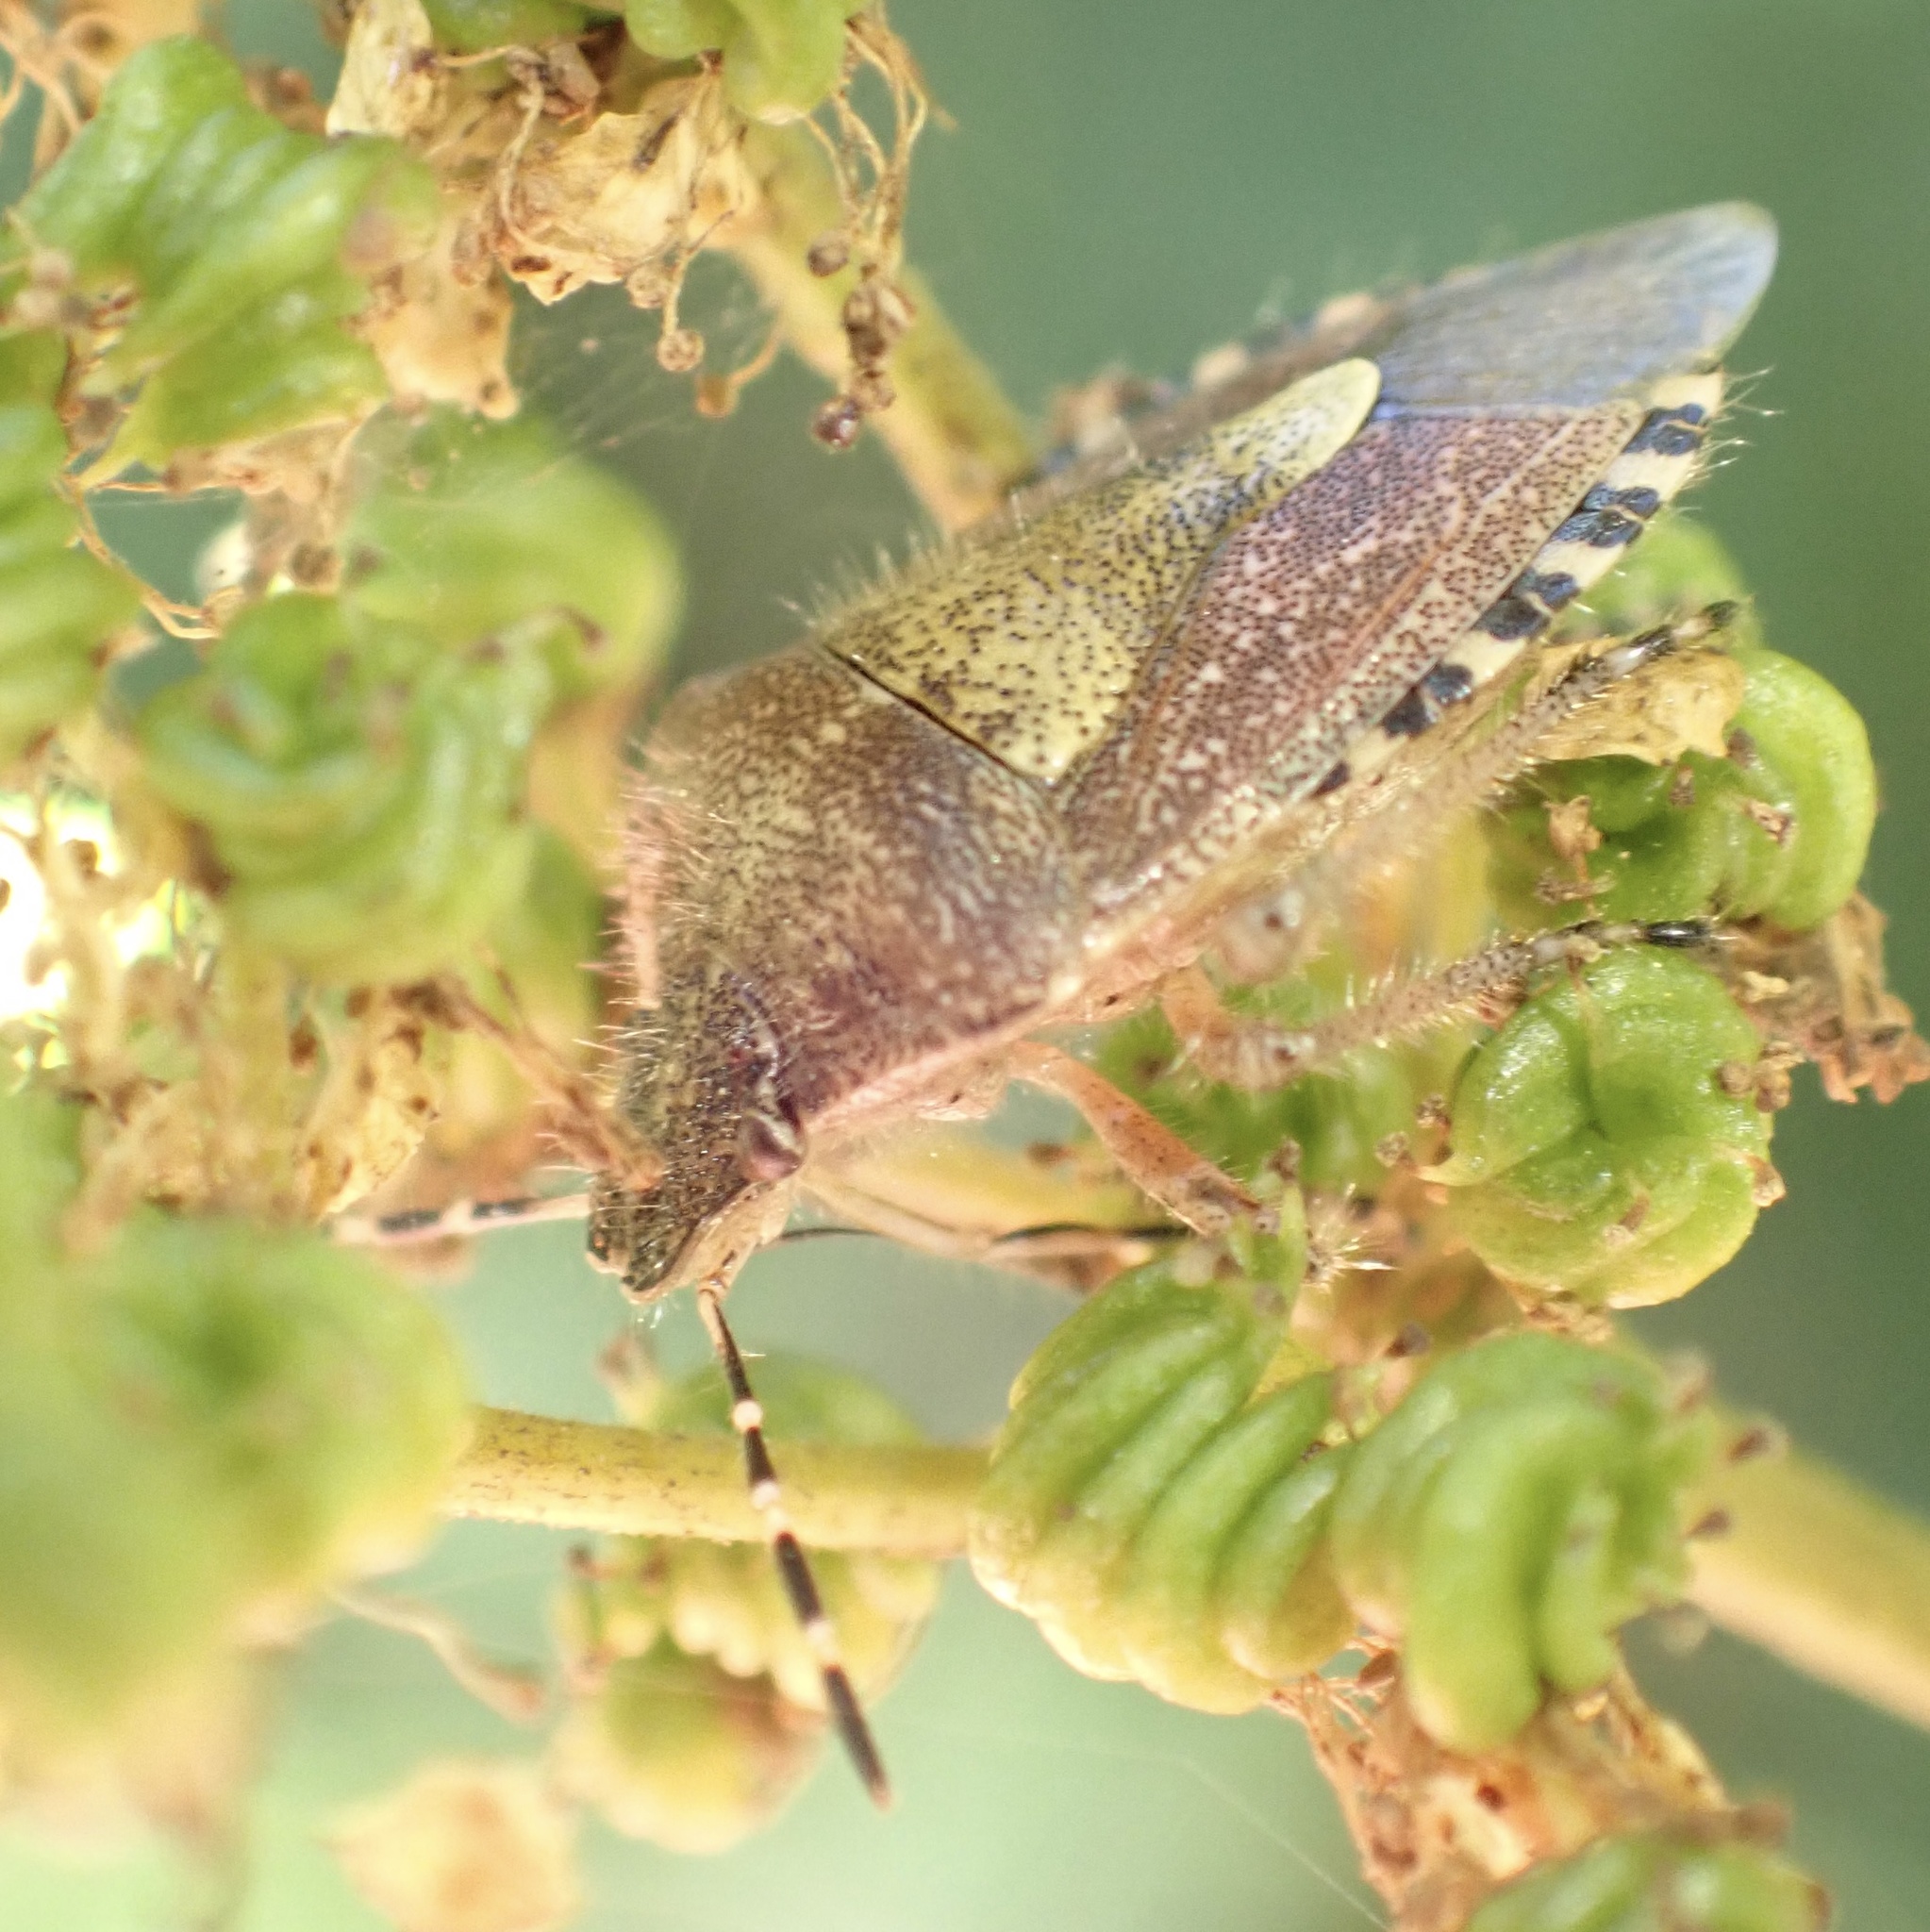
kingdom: Animalia
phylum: Arthropoda
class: Insecta
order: Hemiptera
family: Pentatomidae
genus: Dolycoris
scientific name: Dolycoris baccarum
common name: Sloe bug
